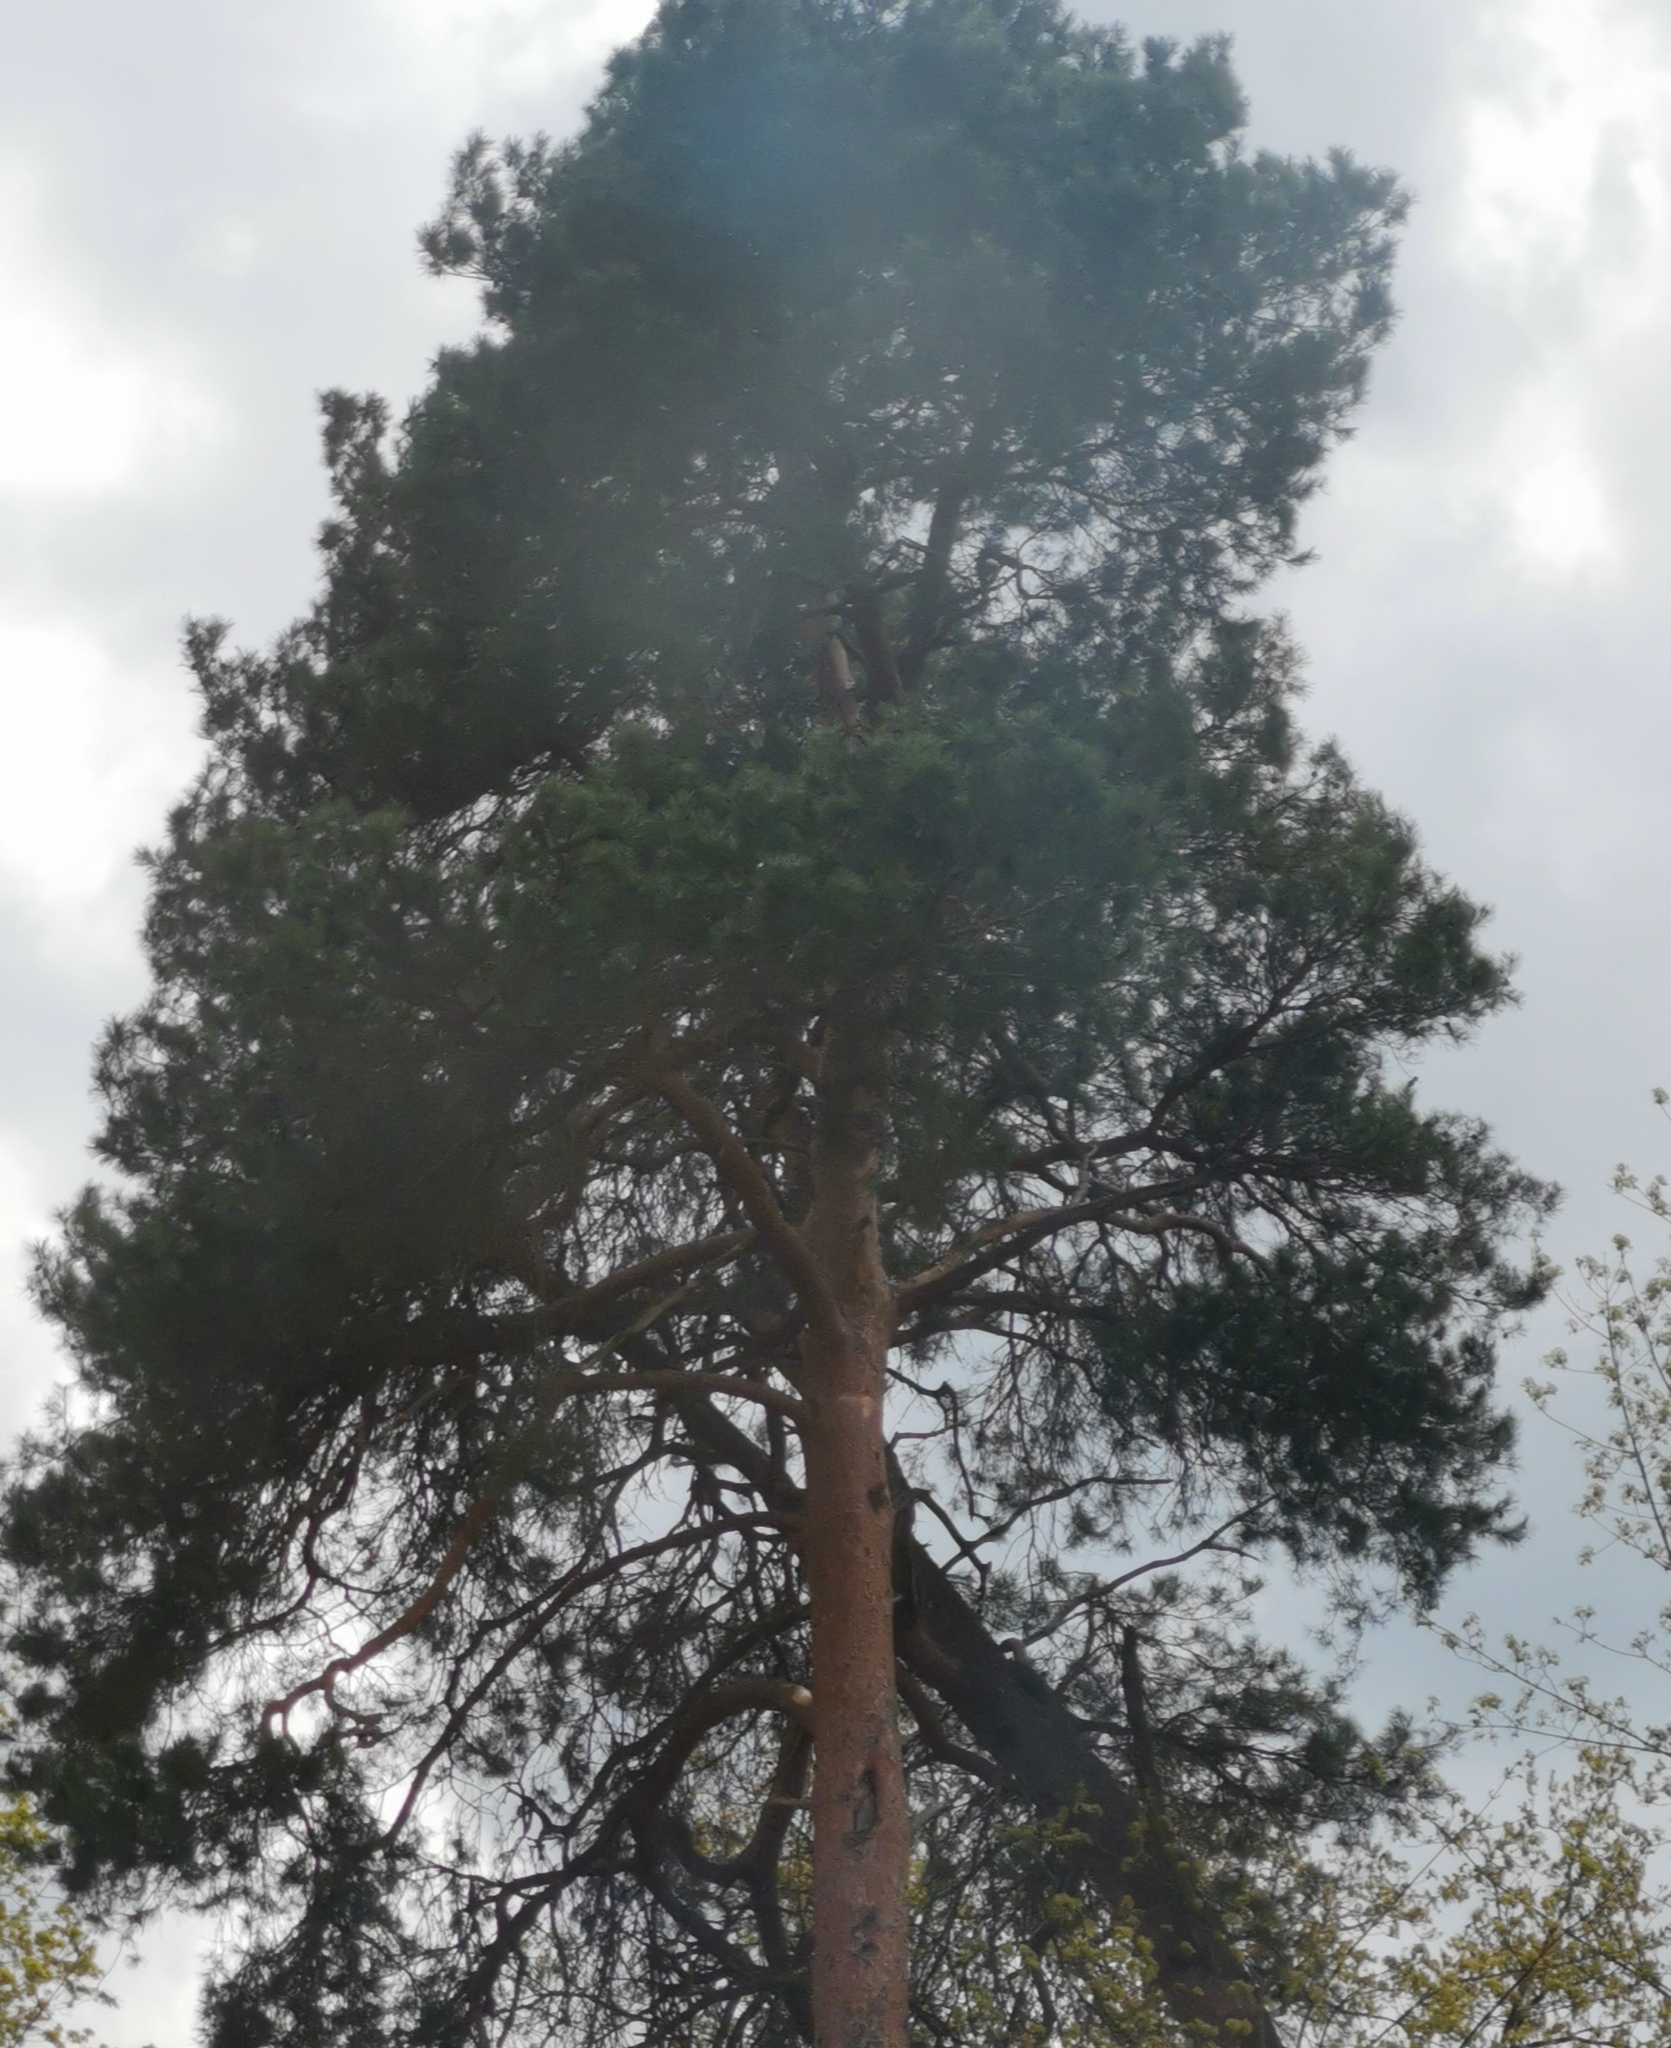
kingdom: Plantae
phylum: Tracheophyta
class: Pinopsida
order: Pinales
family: Pinaceae
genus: Pinus
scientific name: Pinus sylvestris
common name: Scots pine
